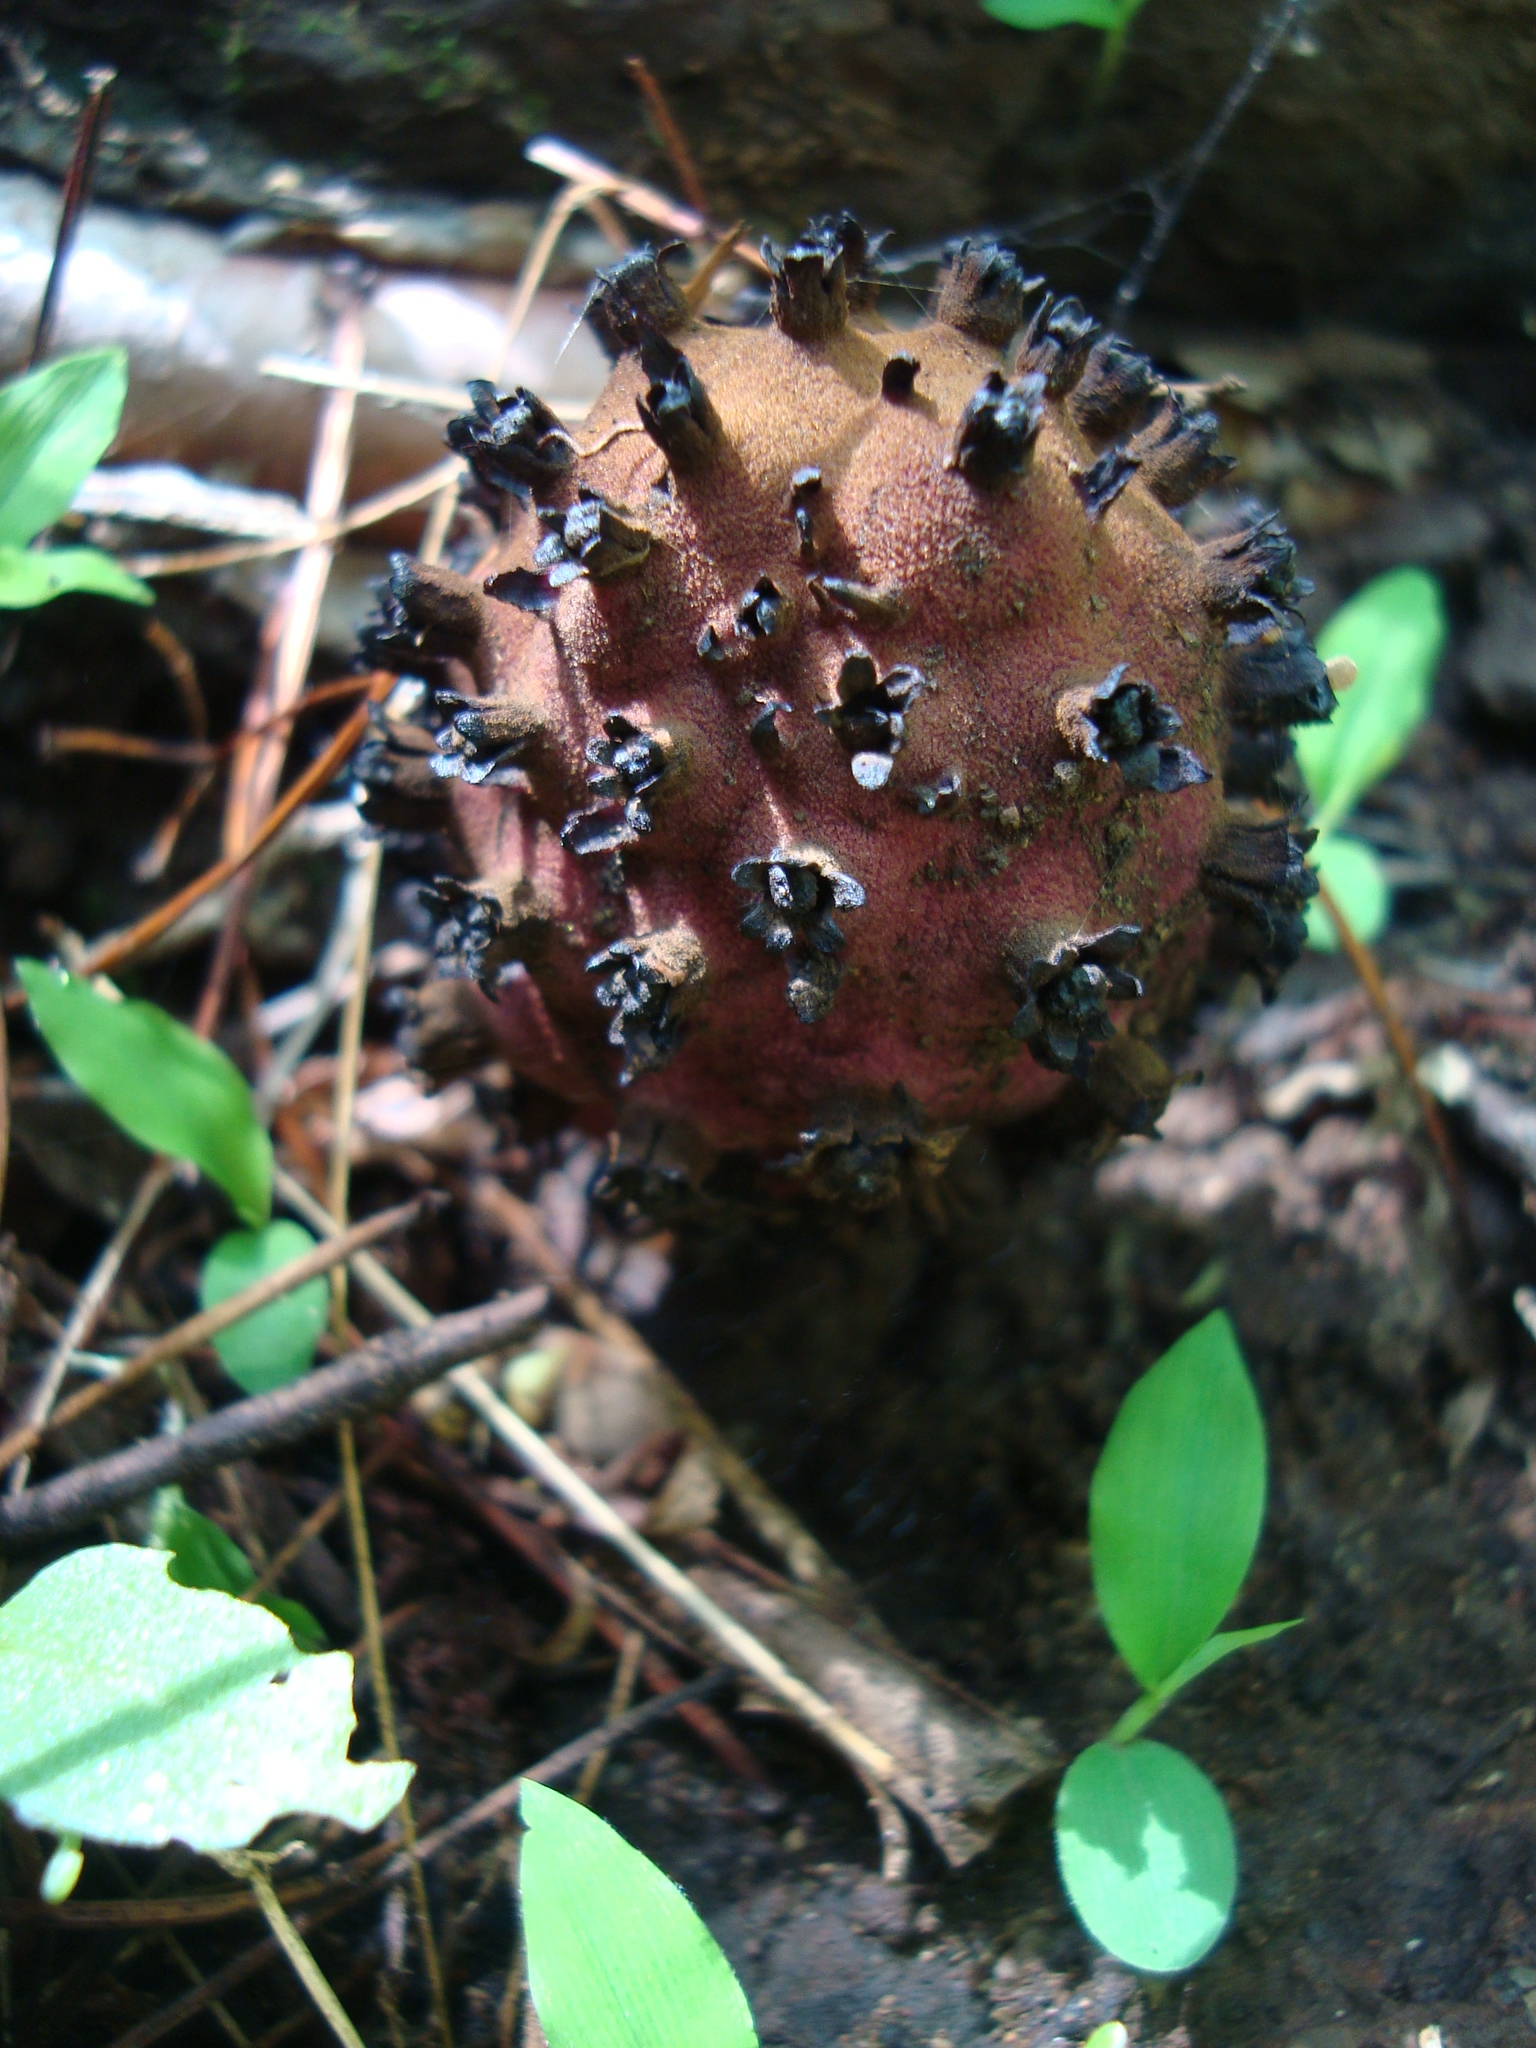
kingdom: Plantae
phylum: Tracheophyta
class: Magnoliopsida
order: Malvales
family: Cytinaceae
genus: Bdallophyton
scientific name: Bdallophyton andrieuxii
